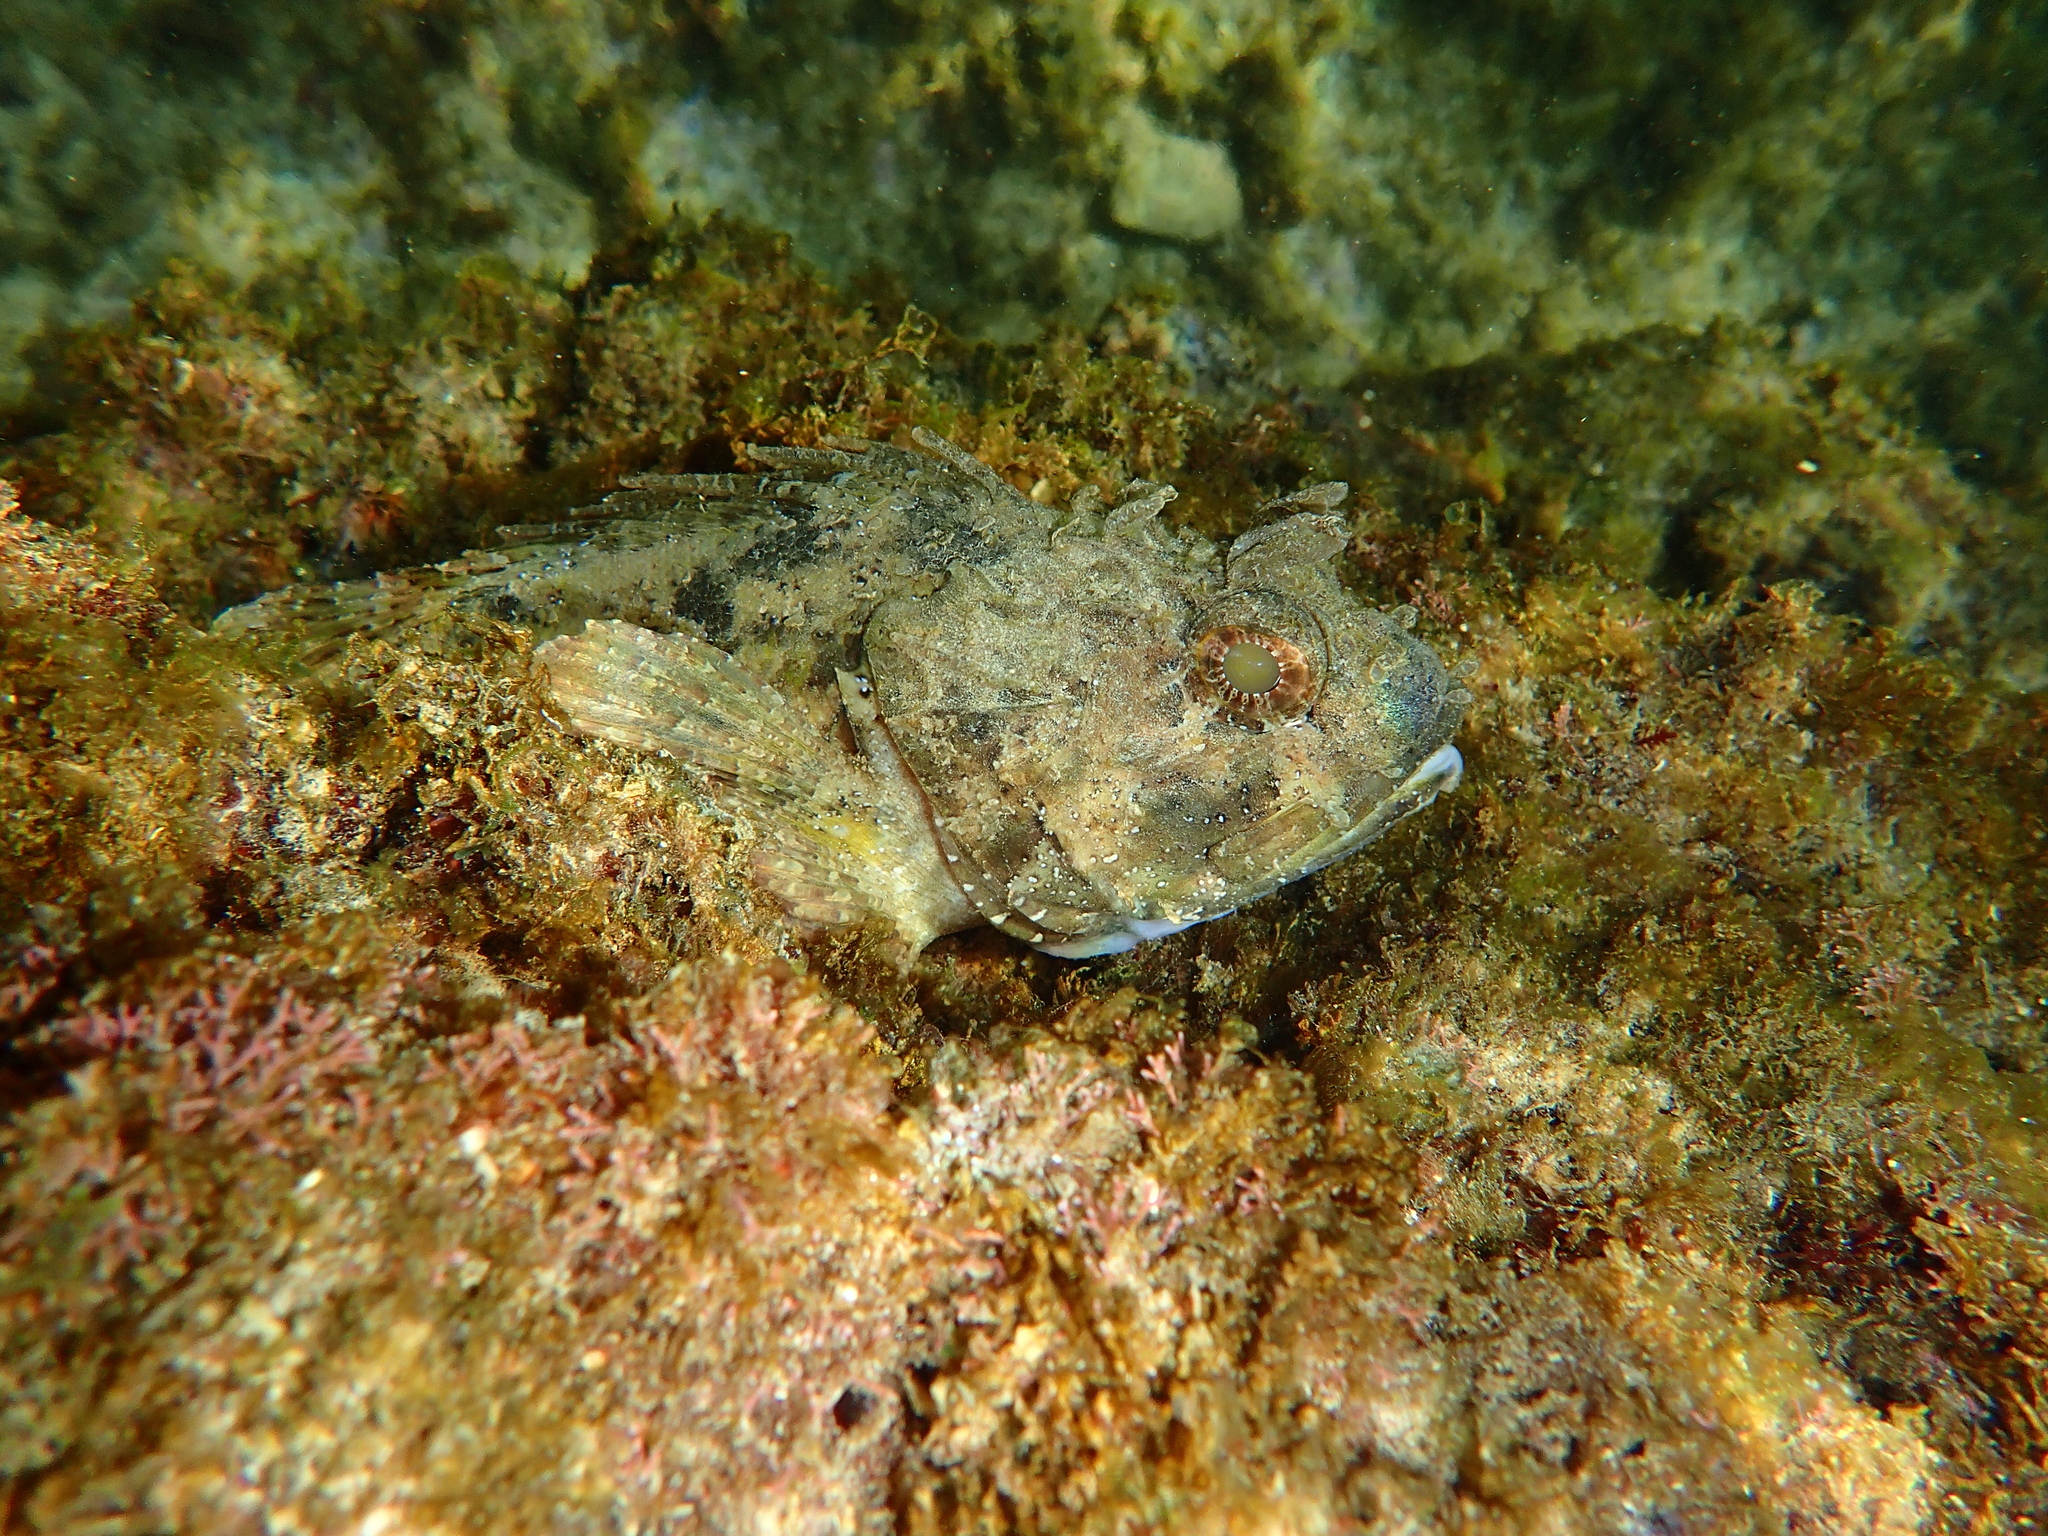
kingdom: Animalia
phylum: Chordata
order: Scorpaeniformes
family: Scorpaenidae
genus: Scorpaena
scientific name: Scorpaena porcus
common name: Black scorpionfish
